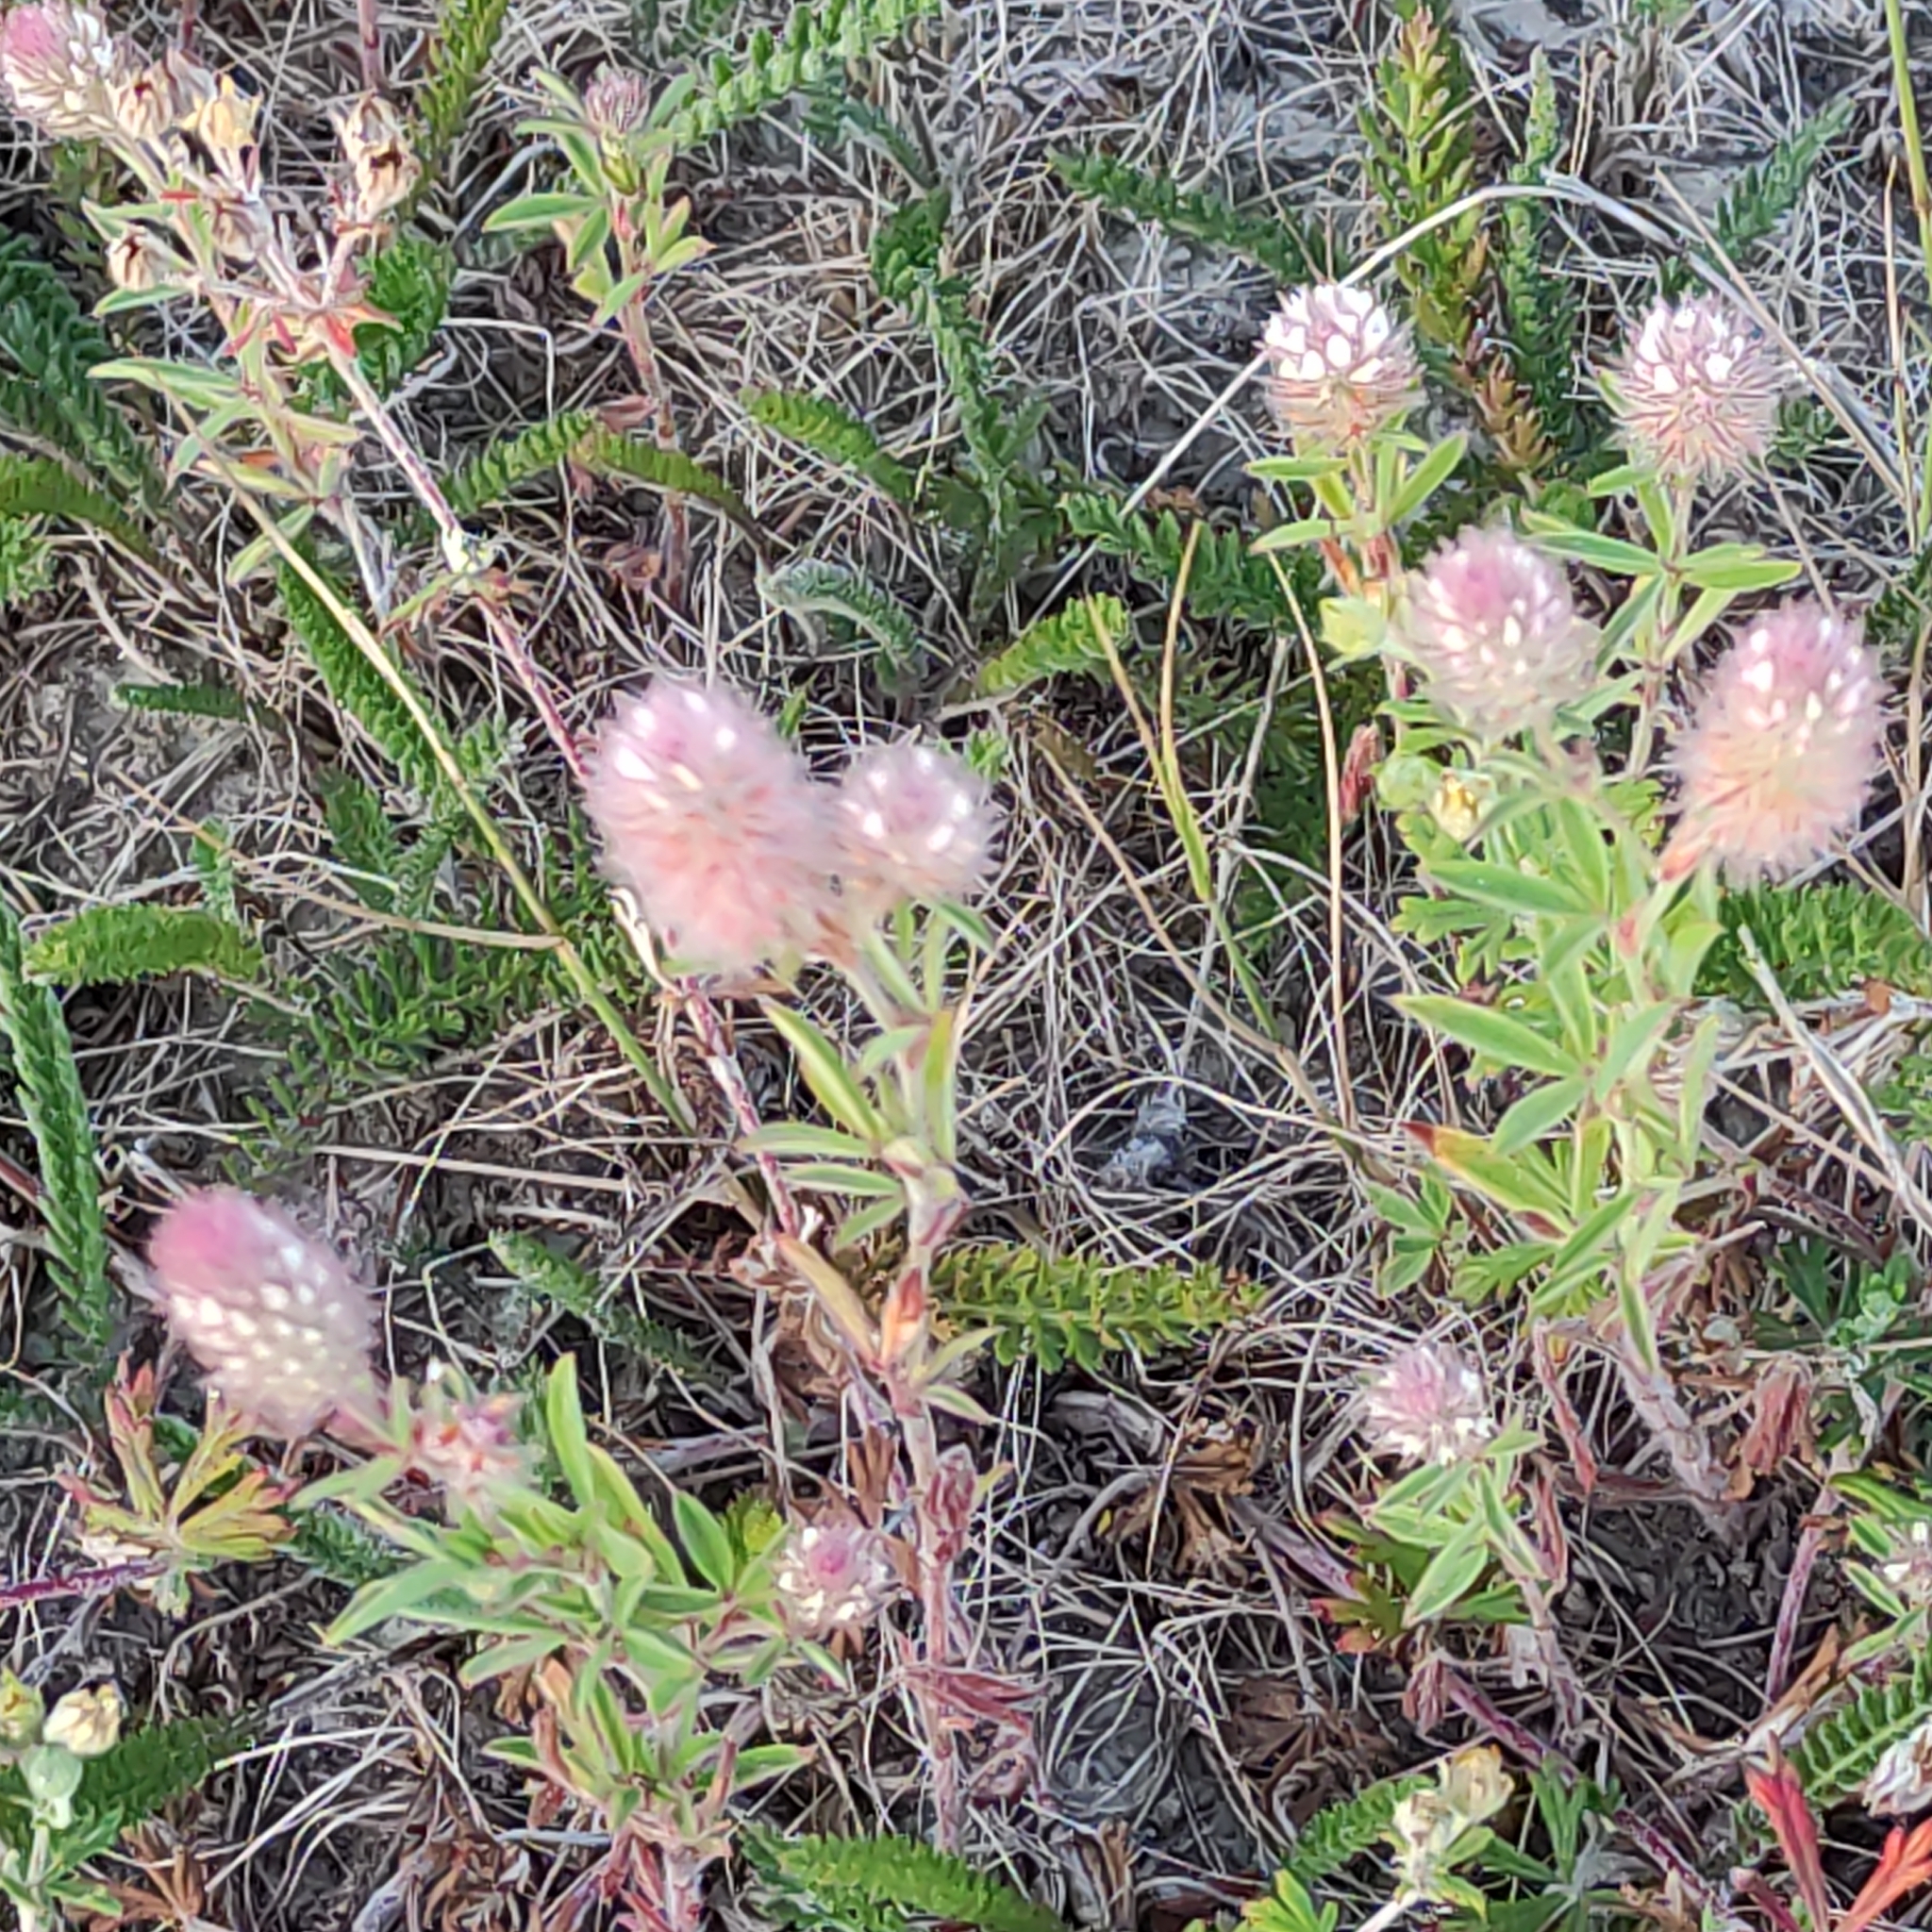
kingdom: Plantae
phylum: Tracheophyta
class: Magnoliopsida
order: Fabales
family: Fabaceae
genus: Trifolium
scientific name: Trifolium arvense
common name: Hare's-foot clover
